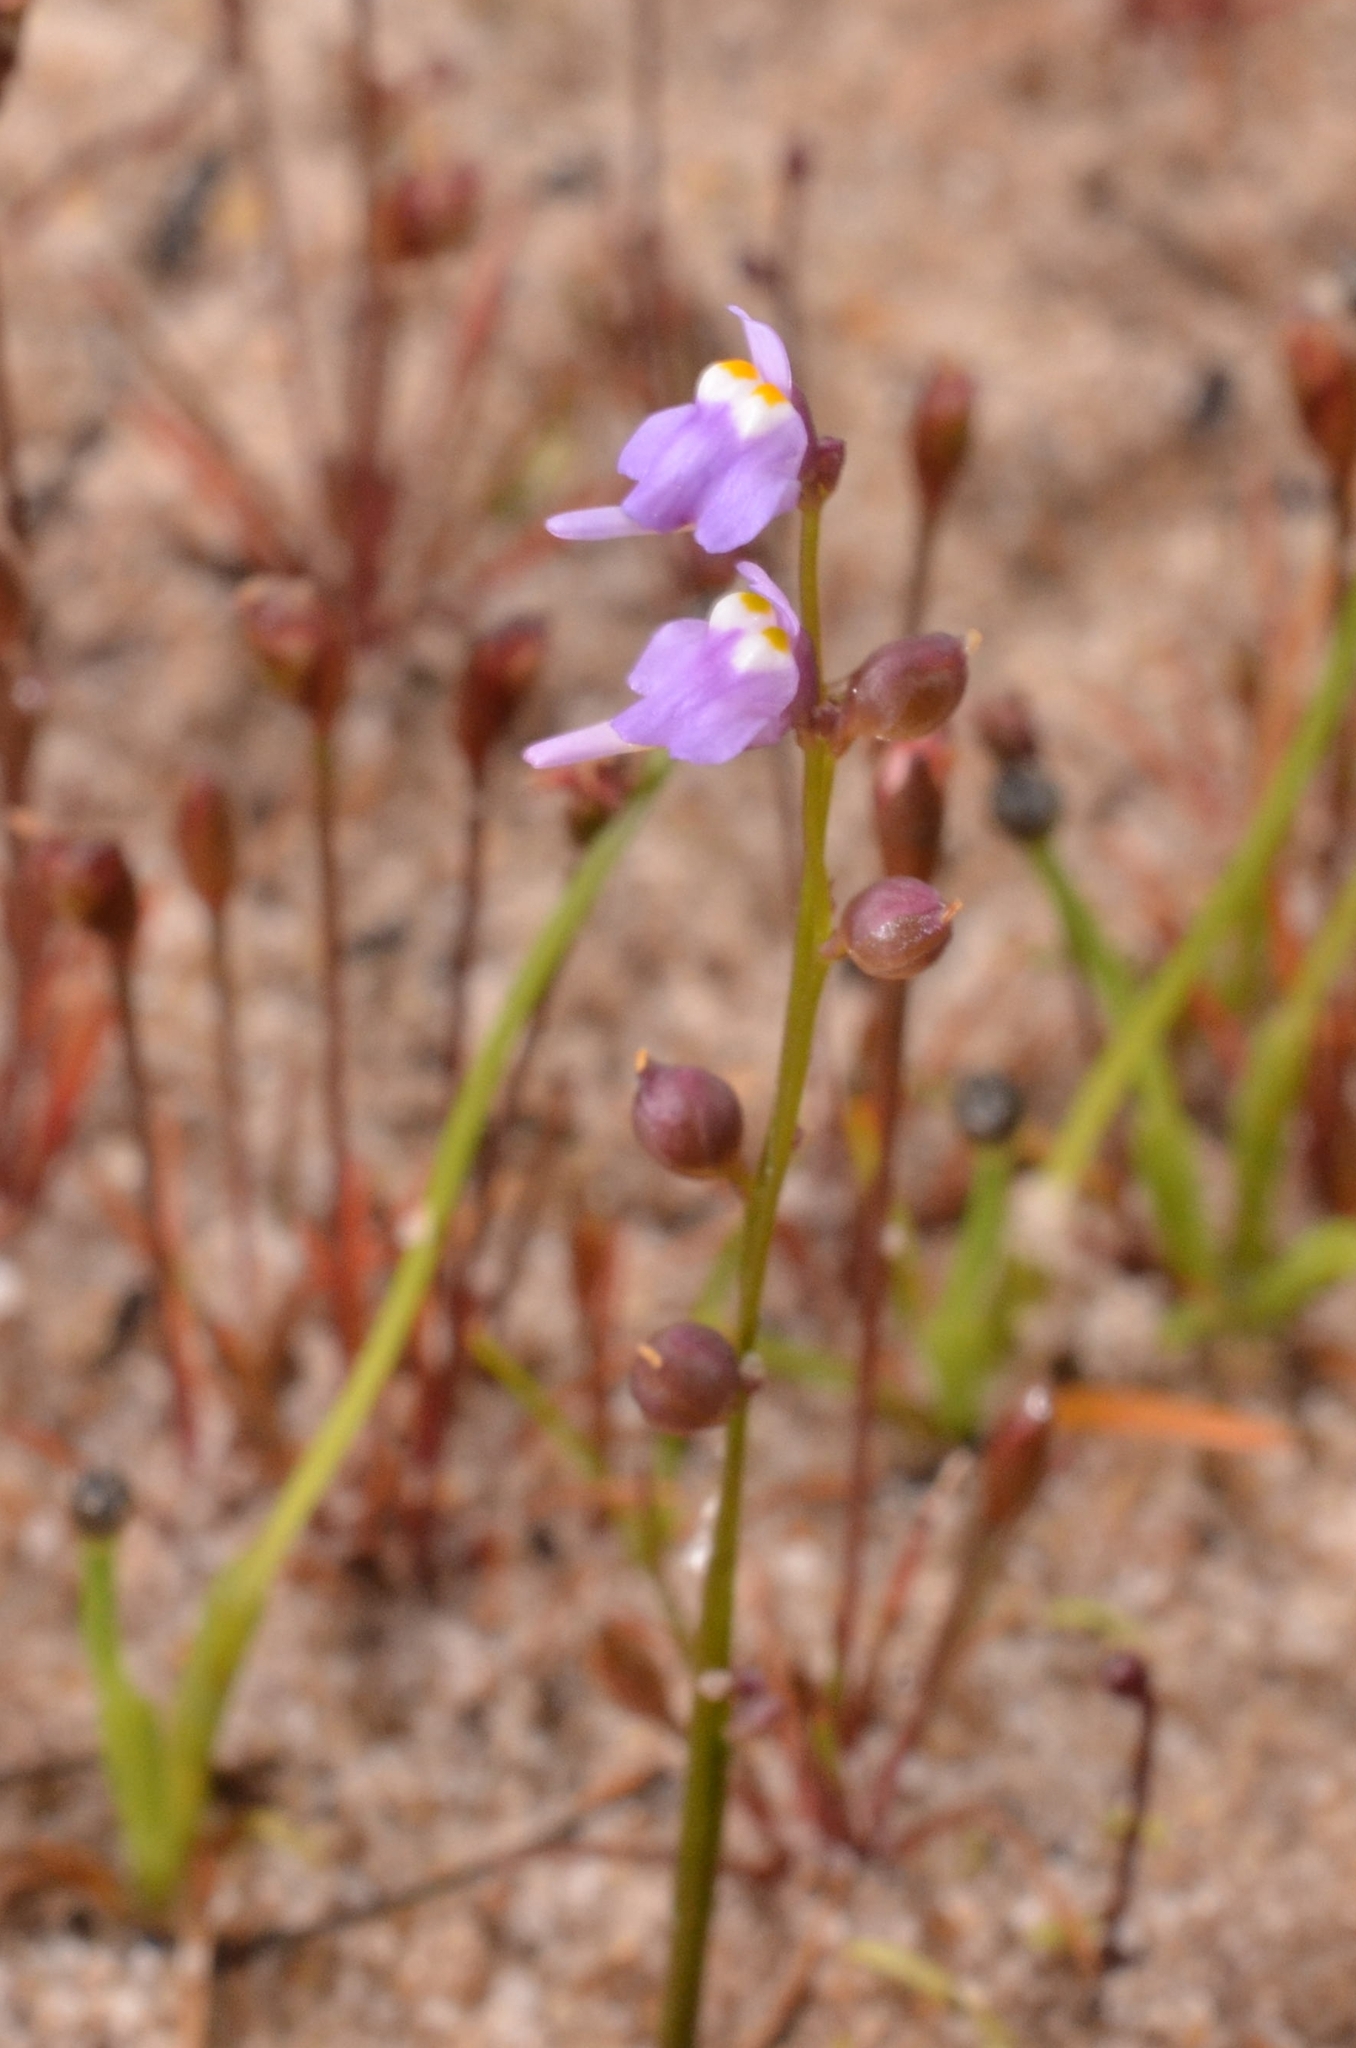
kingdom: Plantae
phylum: Tracheophyta
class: Magnoliopsida
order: Lamiales
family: Lentibulariaceae
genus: Utricularia
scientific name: Utricularia caerulea
